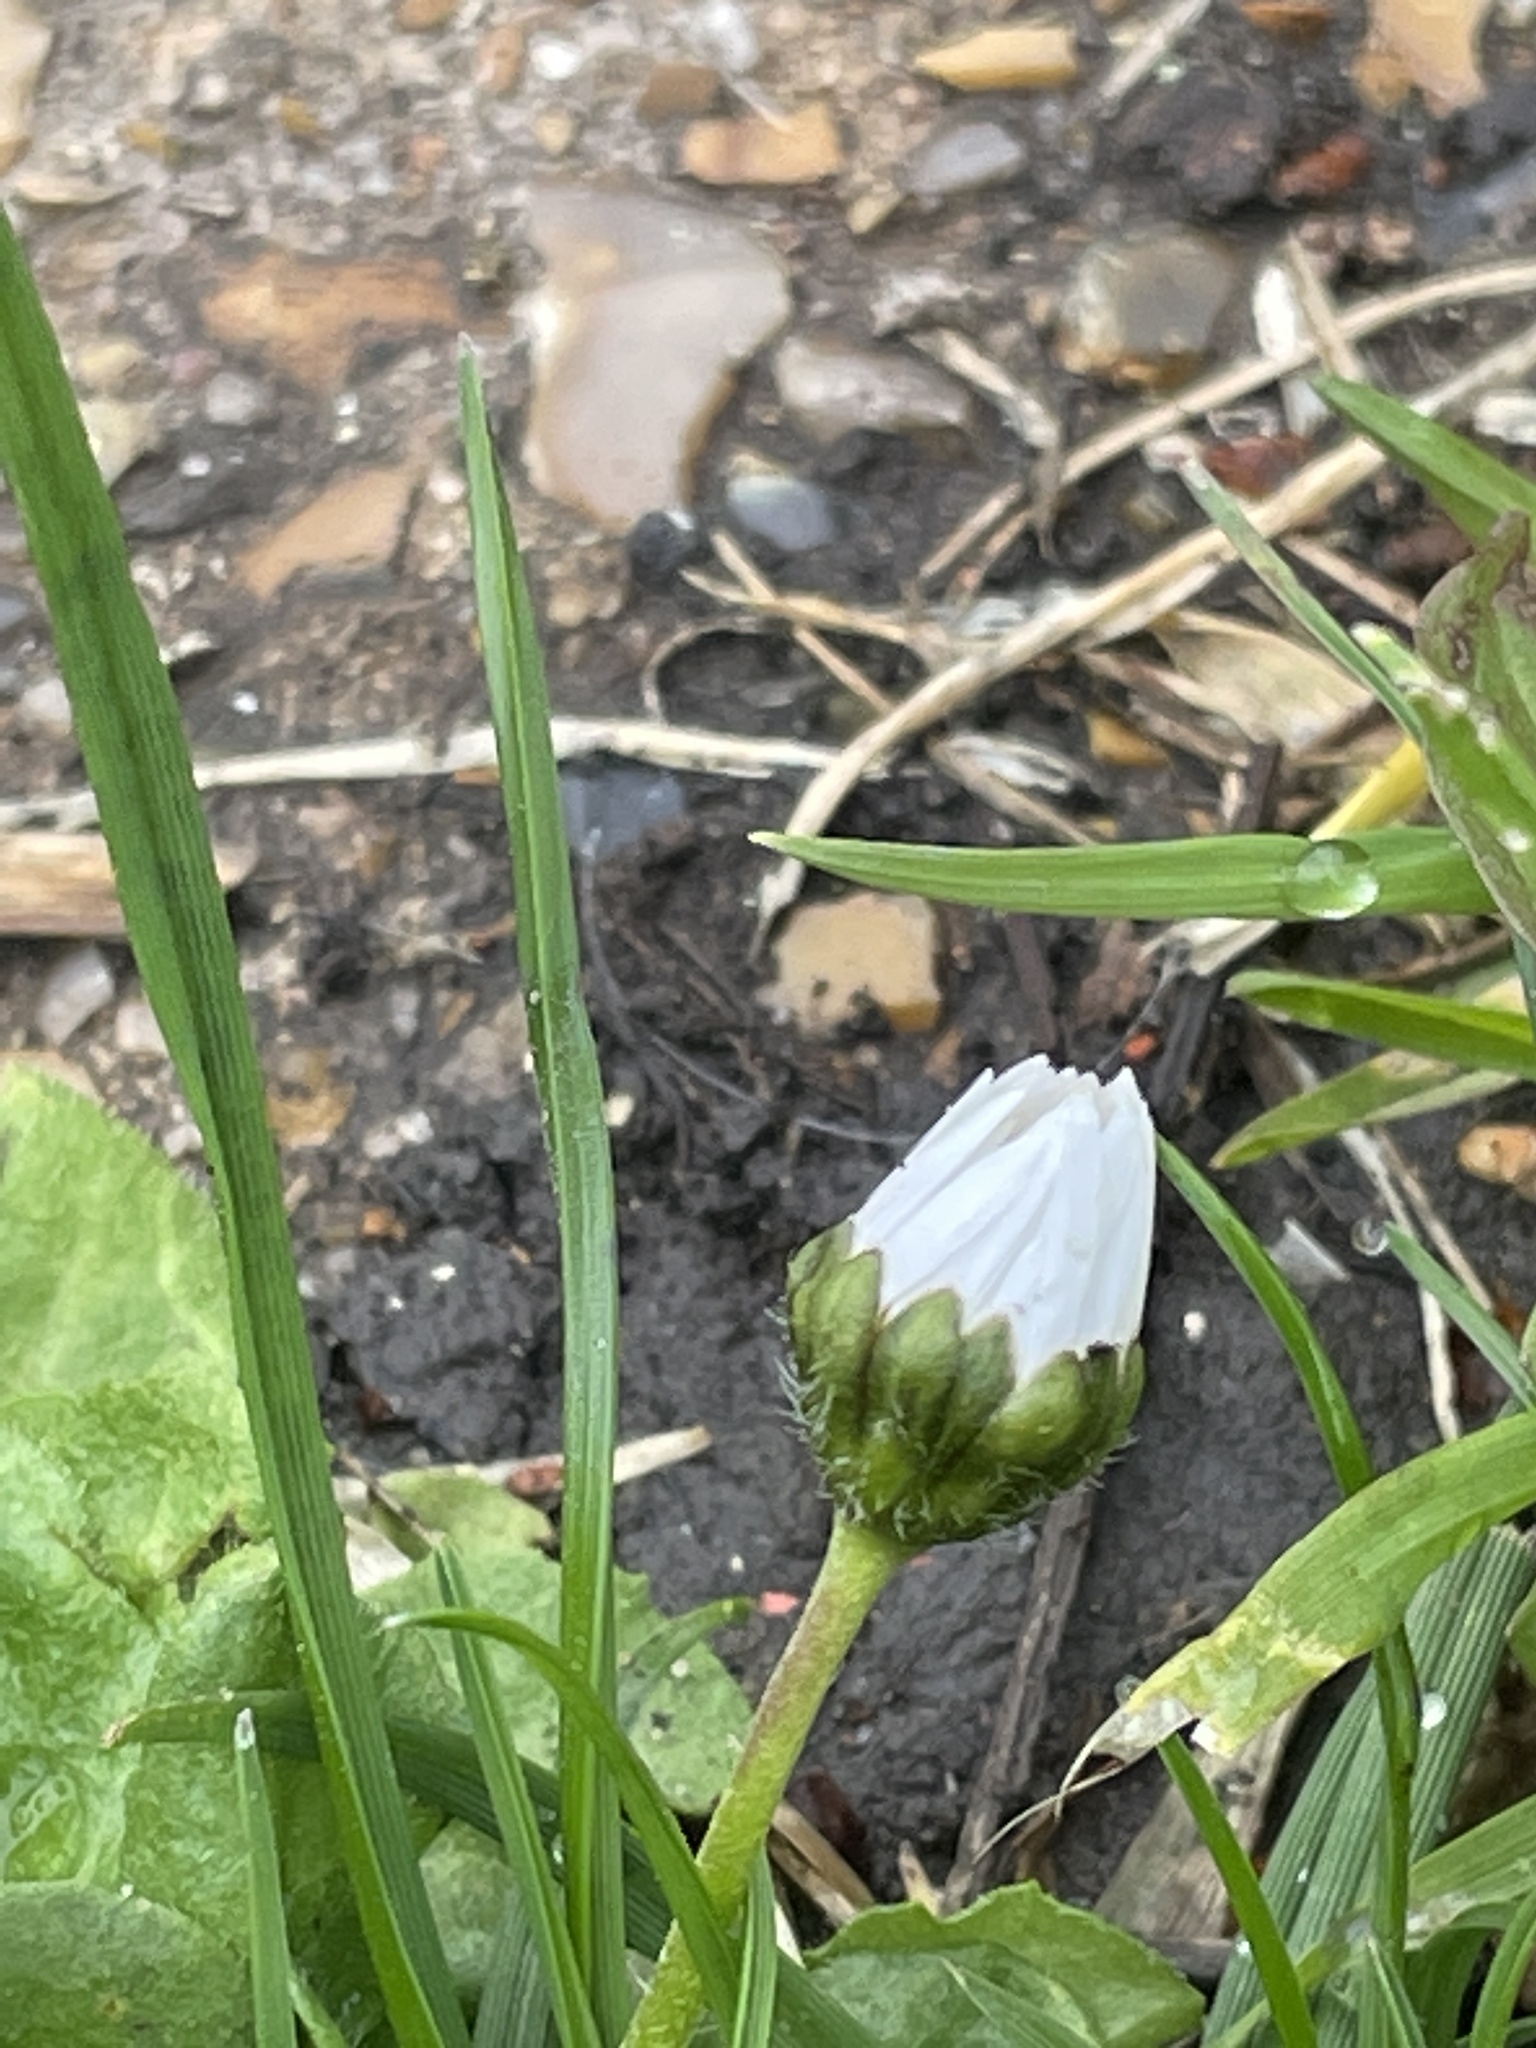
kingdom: Plantae
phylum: Tracheophyta
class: Magnoliopsida
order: Asterales
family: Asteraceae
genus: Bellis
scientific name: Bellis perennis
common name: Lawndaisy
